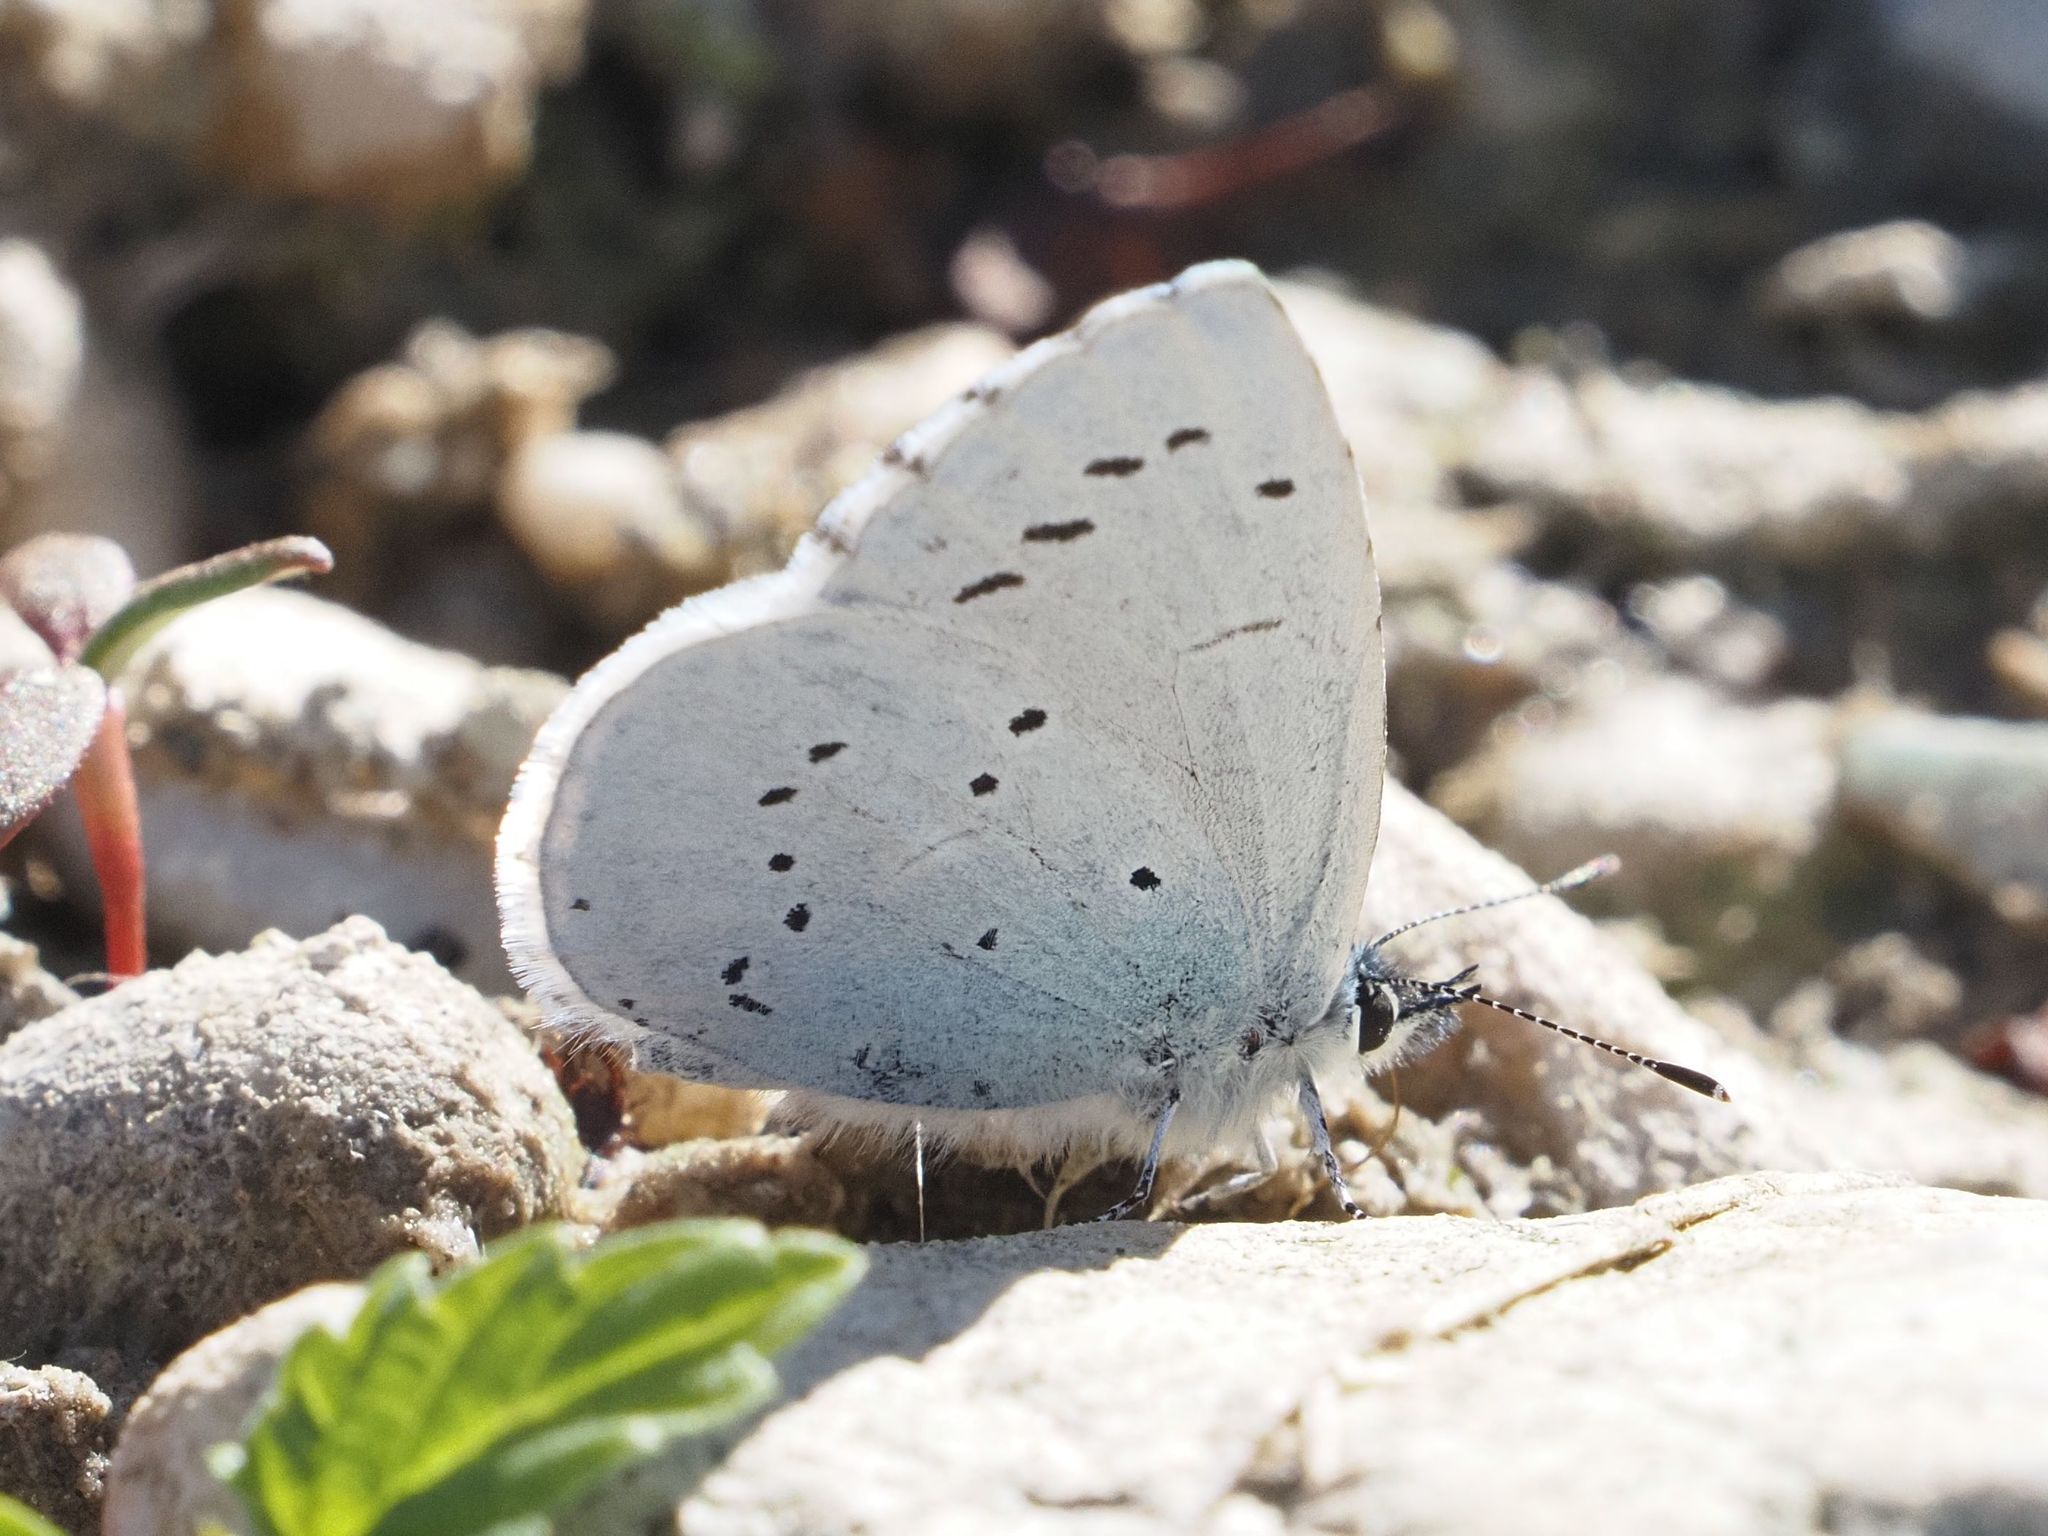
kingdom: Animalia
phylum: Arthropoda
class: Insecta
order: Lepidoptera
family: Lycaenidae
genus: Celastrina
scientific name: Celastrina argiolus
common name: Holly blue
